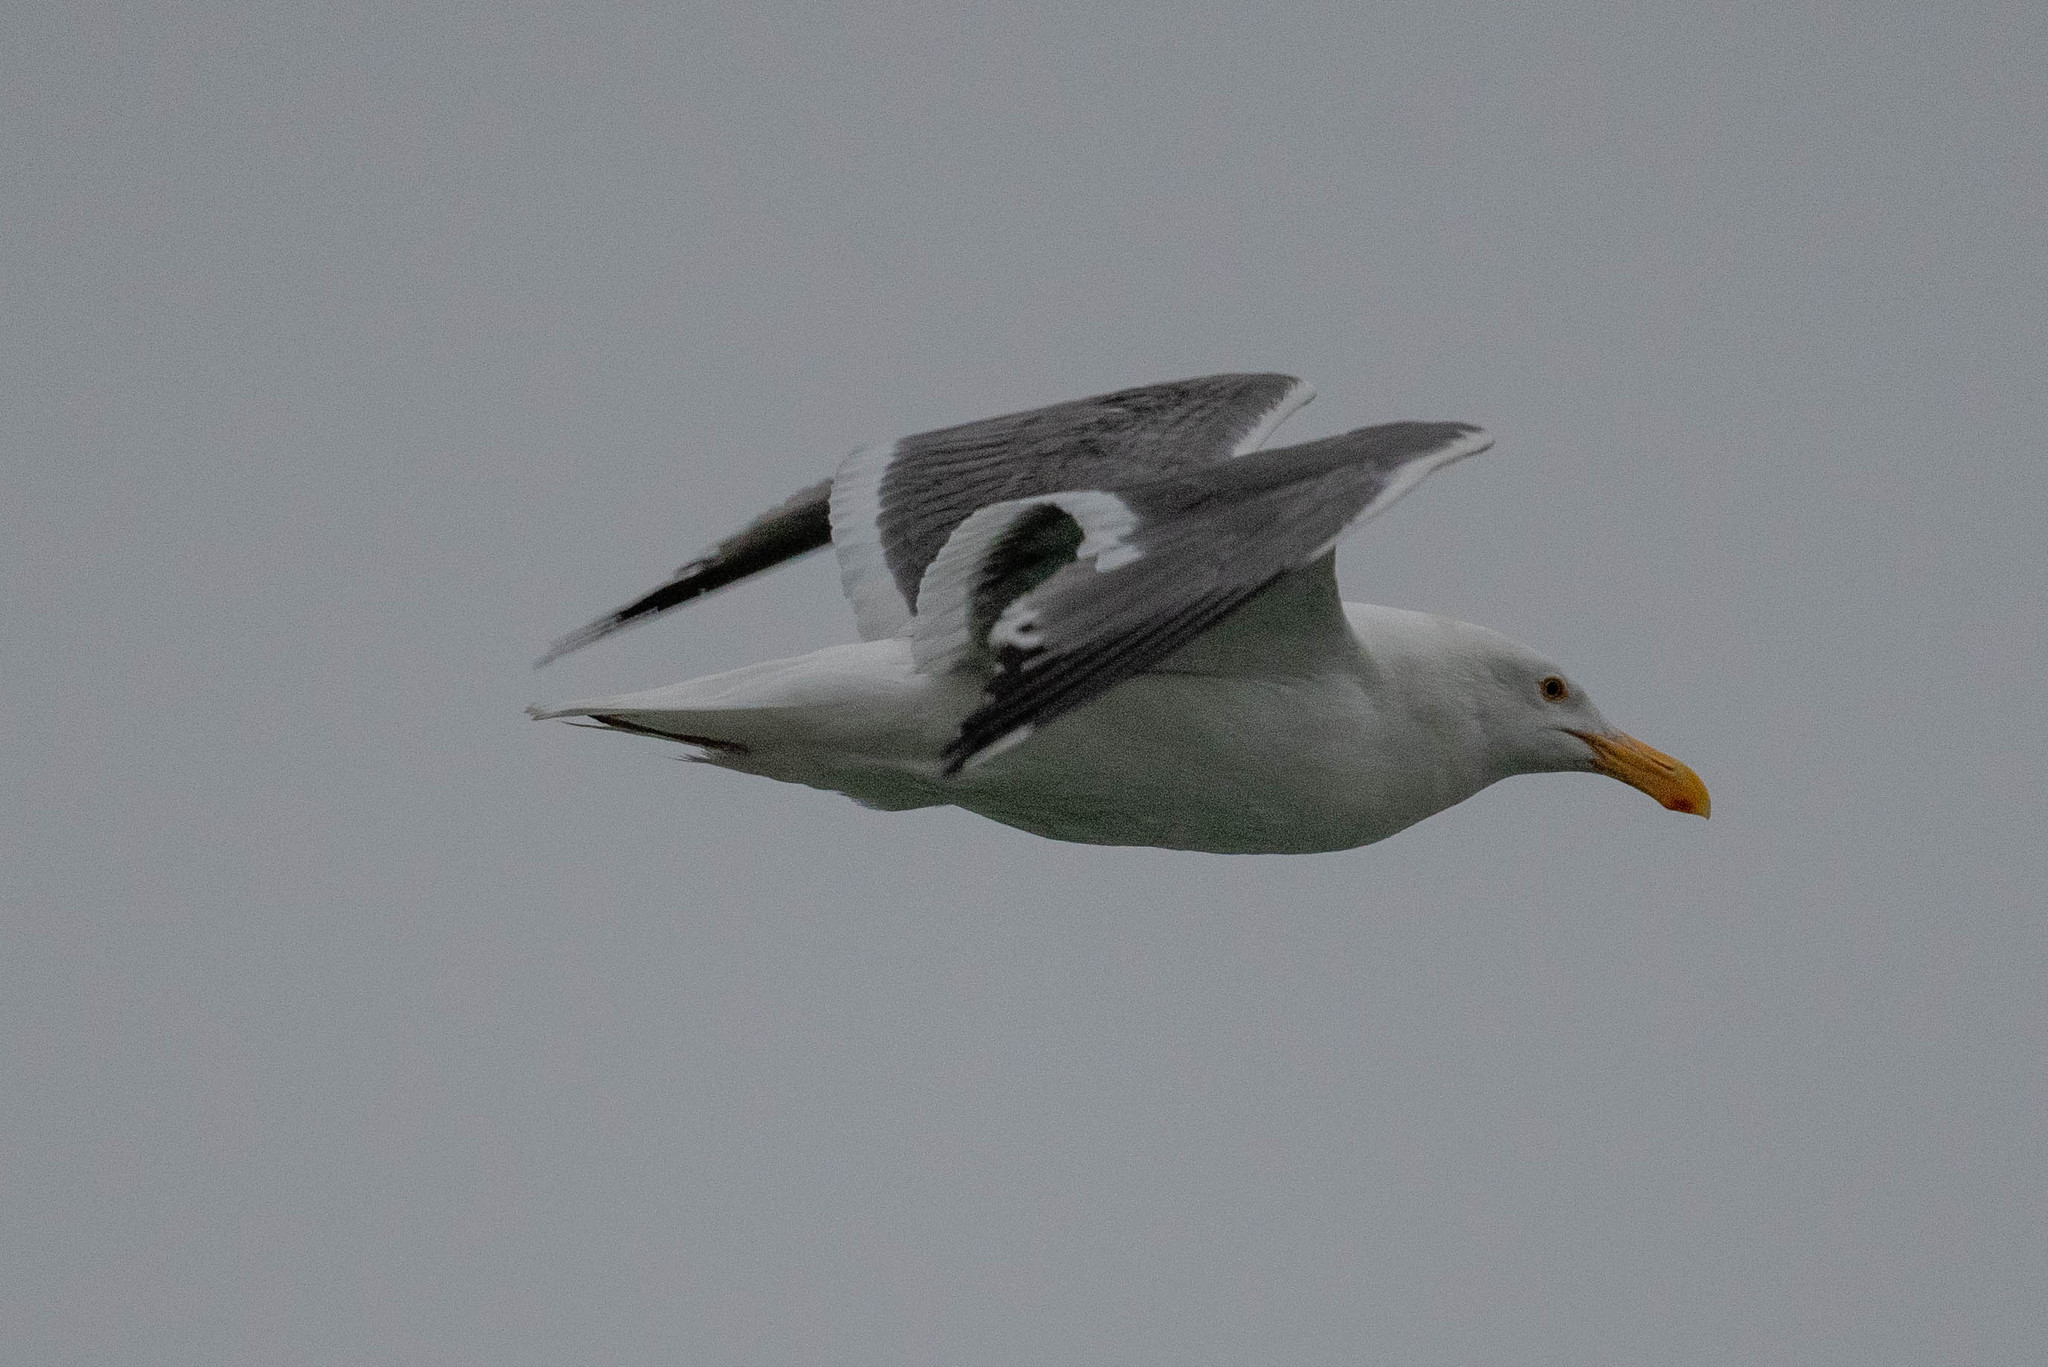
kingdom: Animalia
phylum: Chordata
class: Aves
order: Charadriiformes
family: Laridae
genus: Larus
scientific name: Larus occidentalis
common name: Western gull
